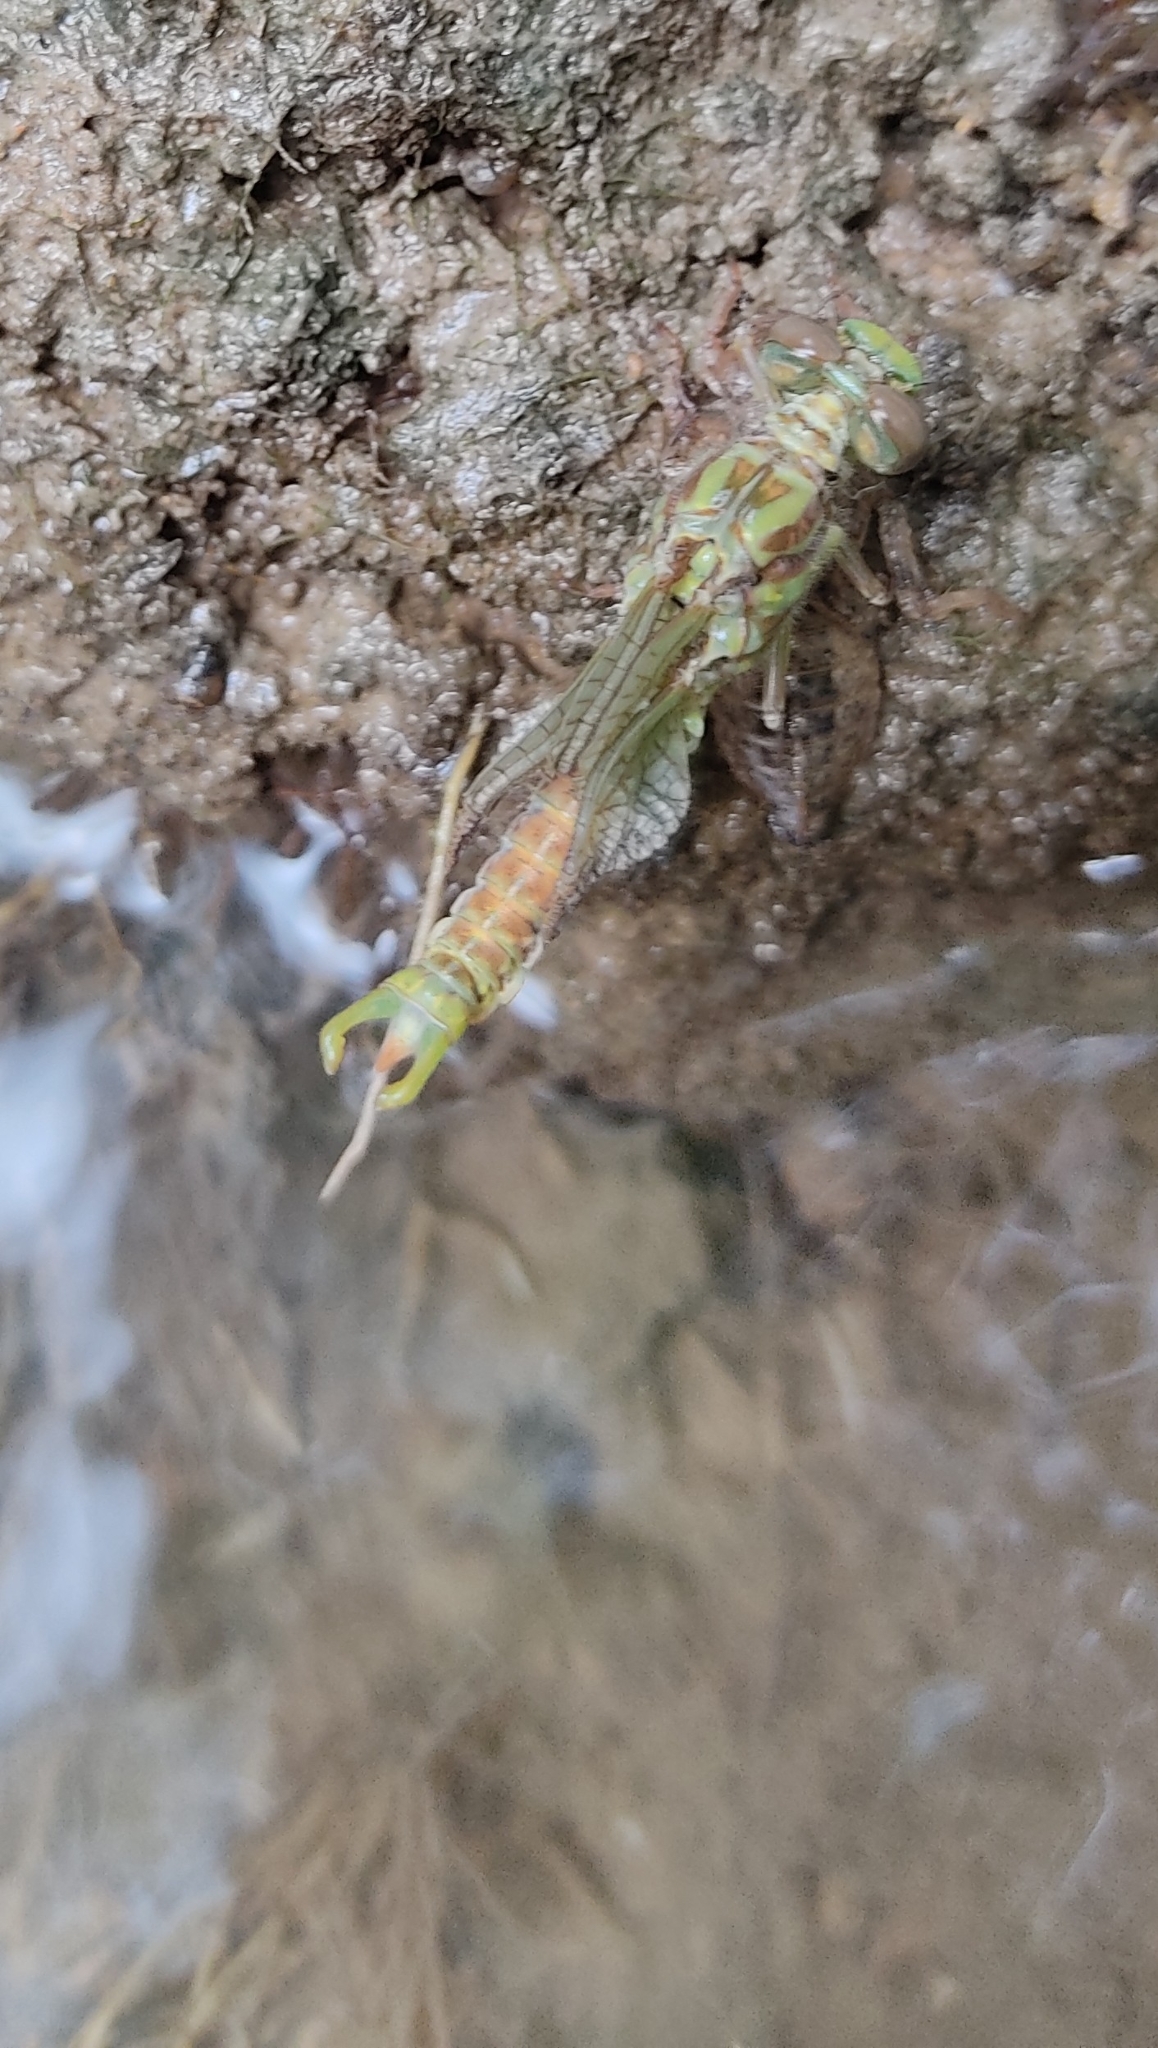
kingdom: Animalia
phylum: Arthropoda
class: Insecta
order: Odonata
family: Gomphidae
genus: Onychogomphus
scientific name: Onychogomphus uncatus
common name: Large pincertail
